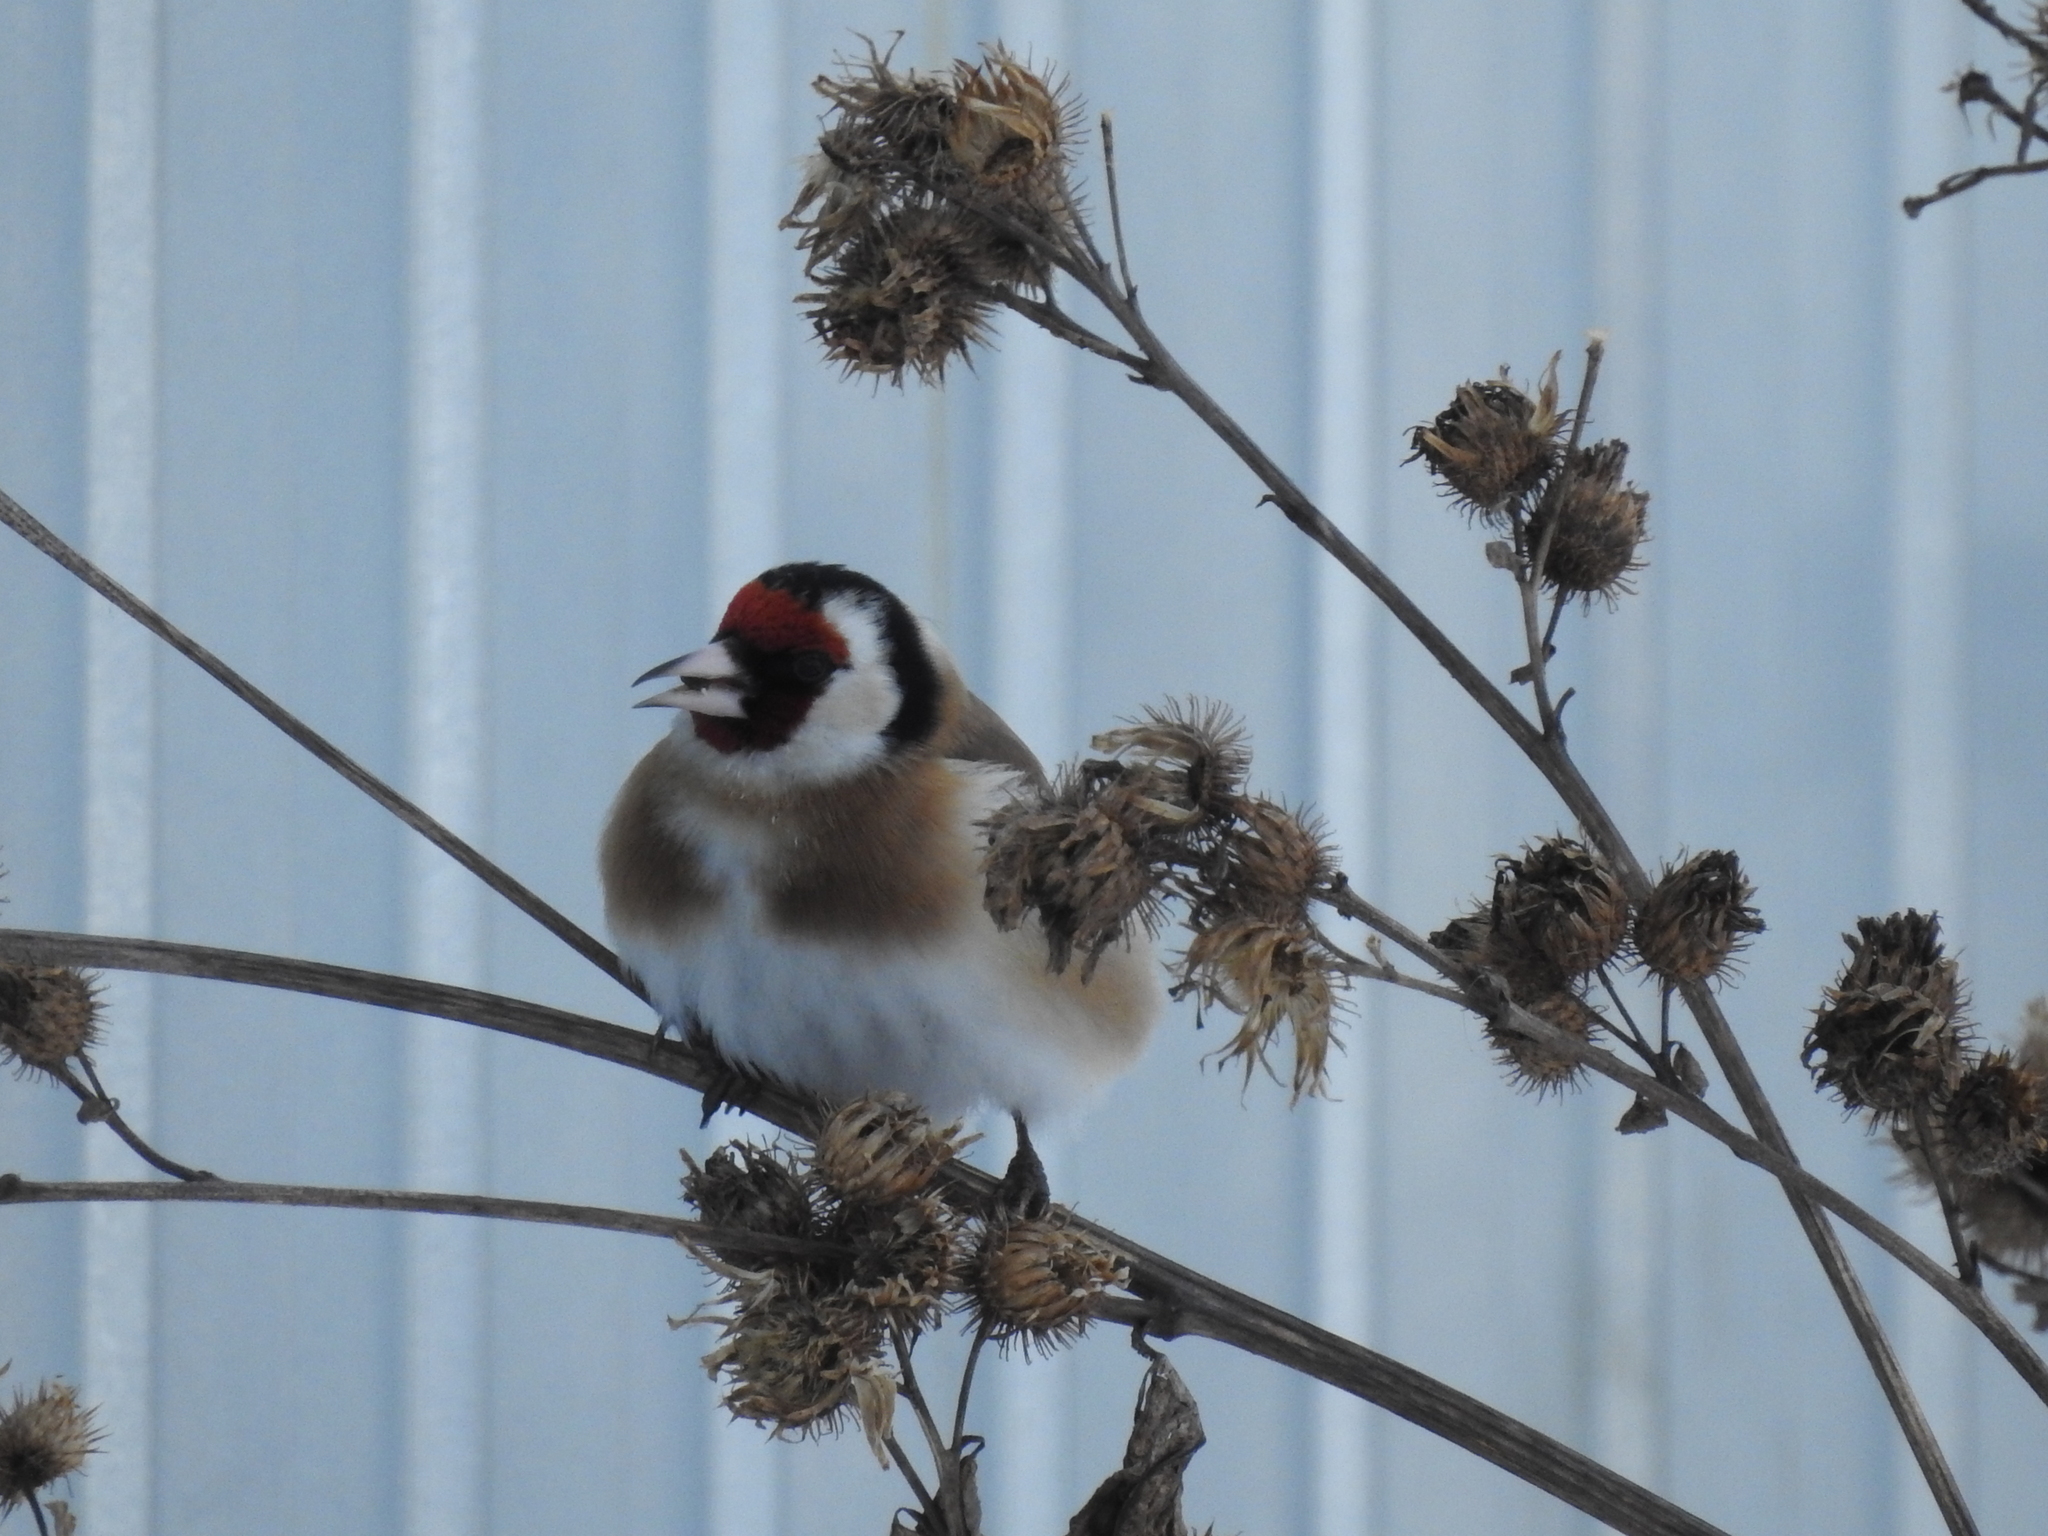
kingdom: Animalia
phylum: Chordata
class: Aves
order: Passeriformes
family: Fringillidae
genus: Carduelis
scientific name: Carduelis carduelis
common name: European goldfinch
